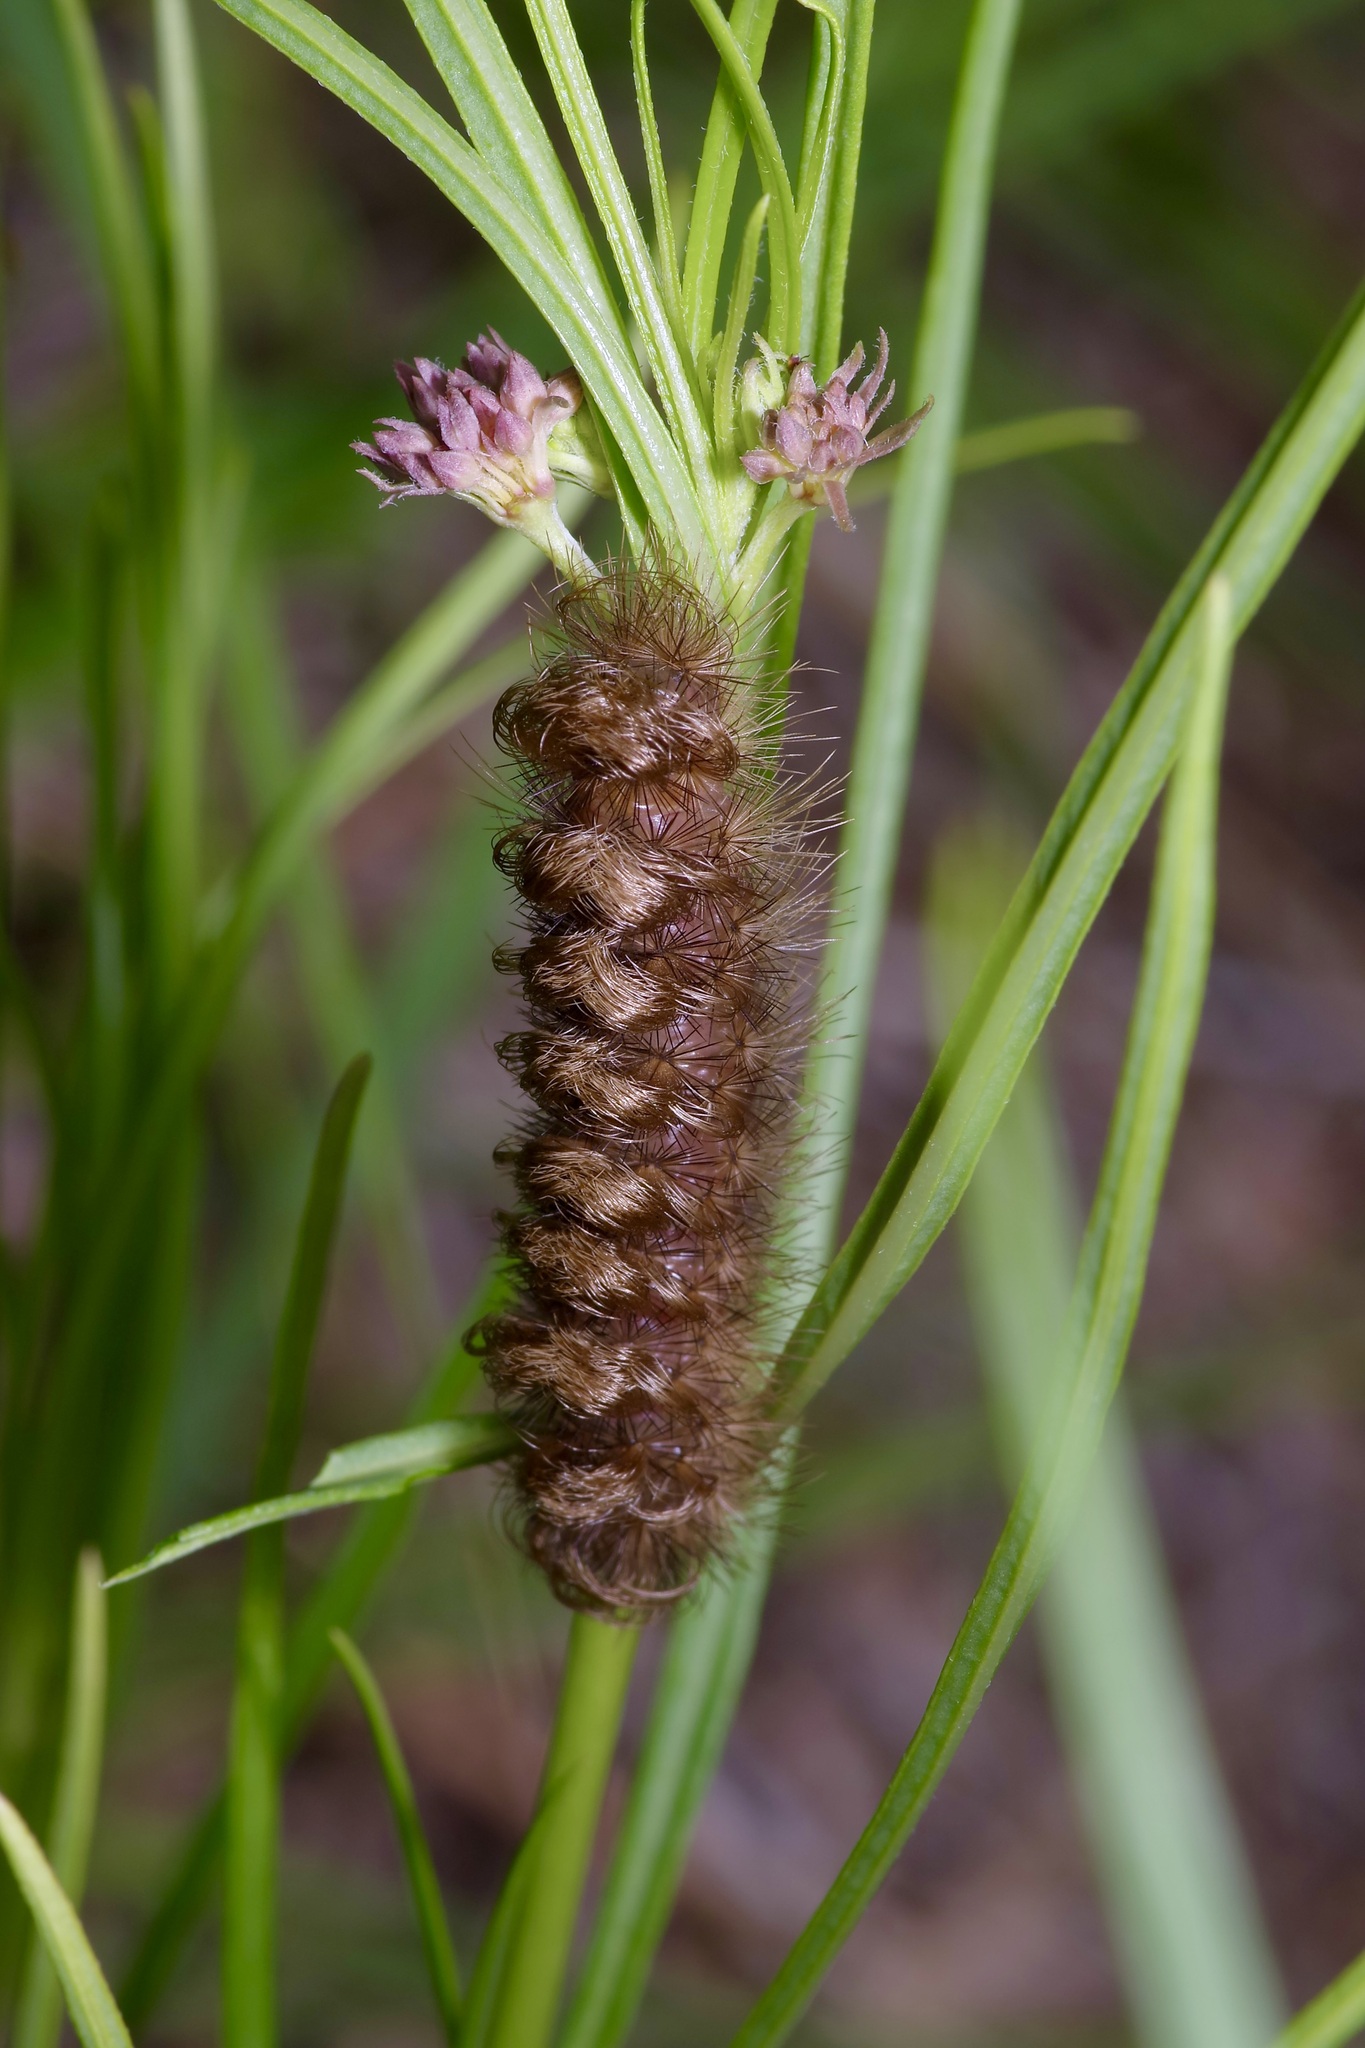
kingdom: Animalia
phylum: Arthropoda
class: Insecta
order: Lepidoptera
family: Erebidae
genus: Ectypia
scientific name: Ectypia clio
